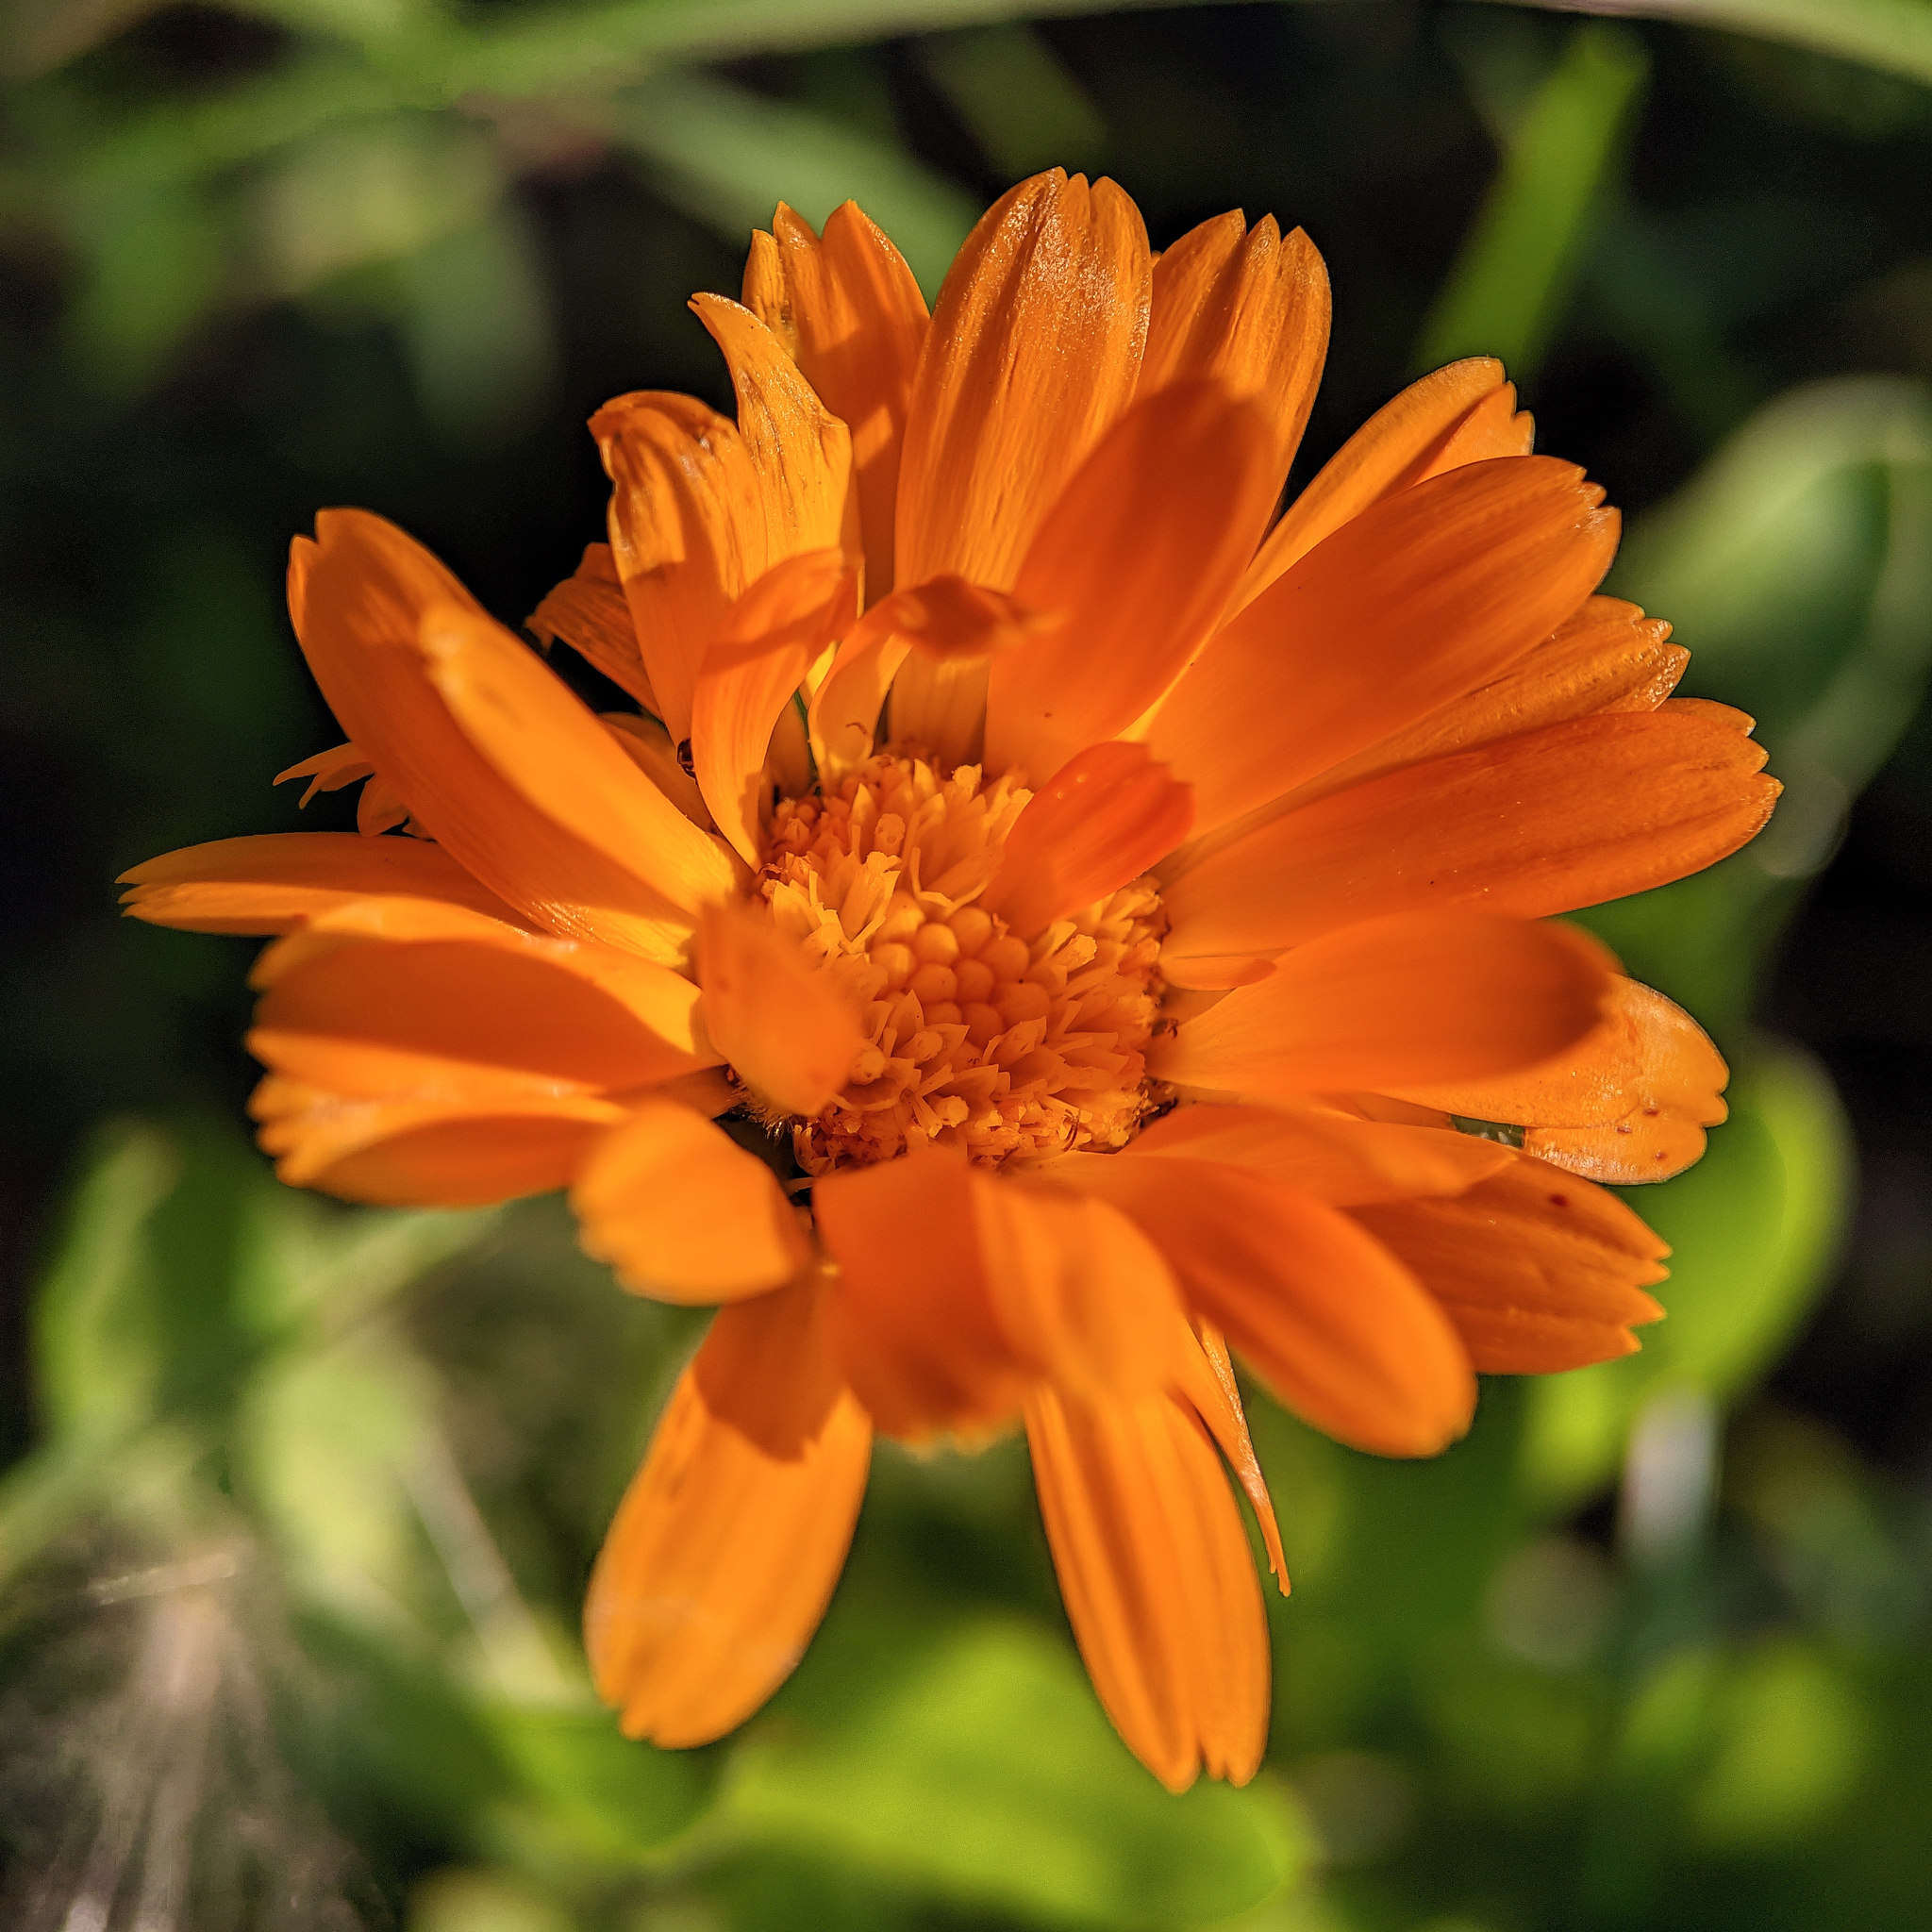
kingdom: Plantae
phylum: Tracheophyta
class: Magnoliopsida
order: Asterales
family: Asteraceae
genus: Calendula
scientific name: Calendula officinalis
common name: Pot marigold
